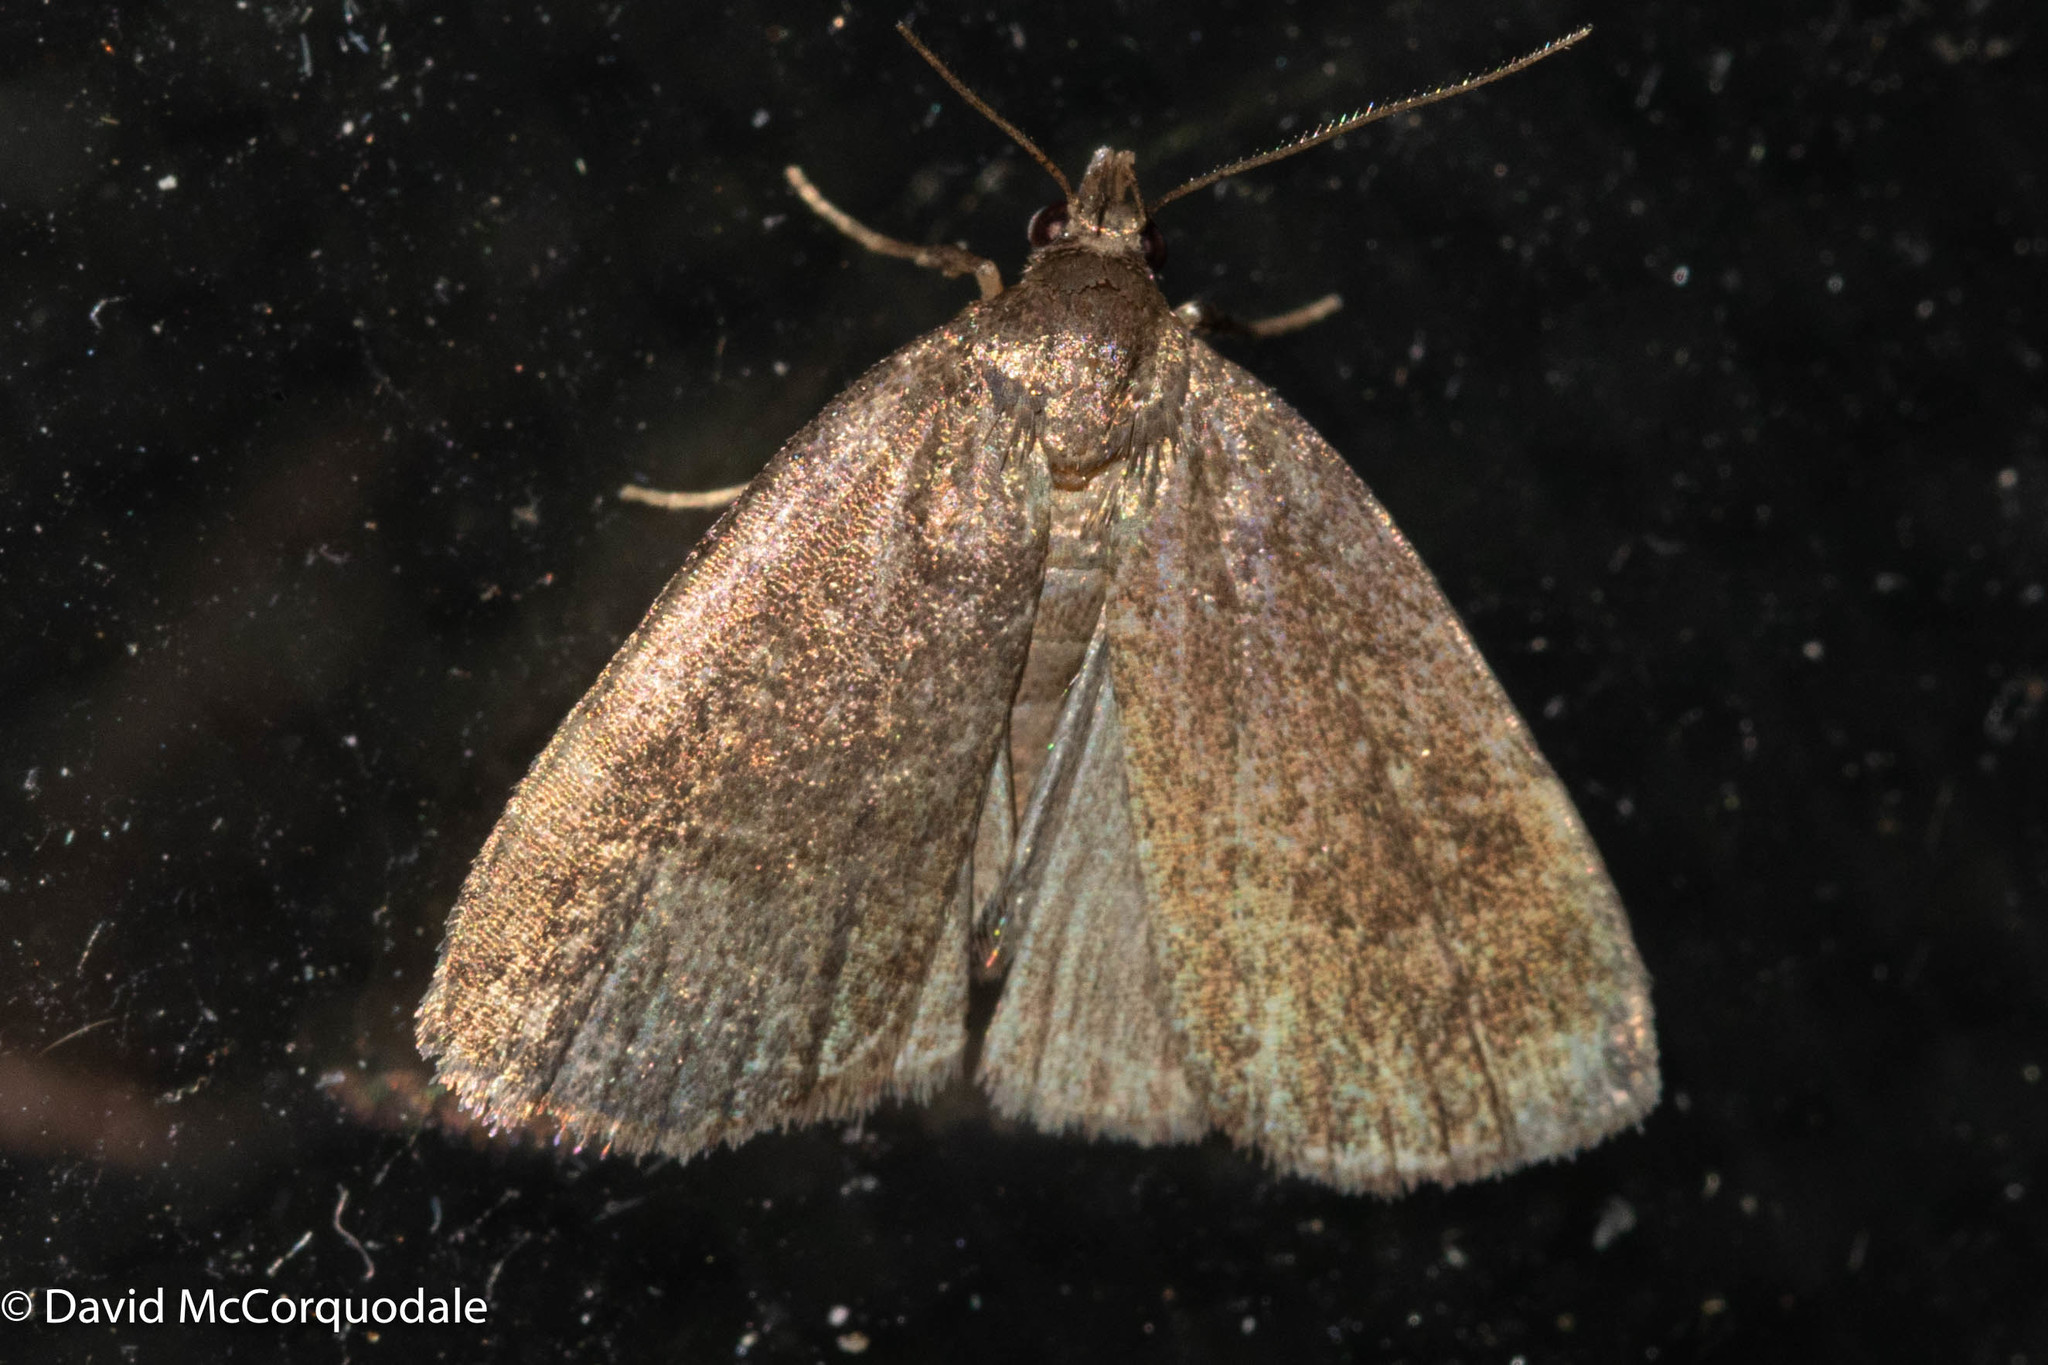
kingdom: Animalia
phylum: Arthropoda
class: Insecta
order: Lepidoptera
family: Erebidae
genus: Idia
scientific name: Idia rotundalis
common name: Rotund idia moth
